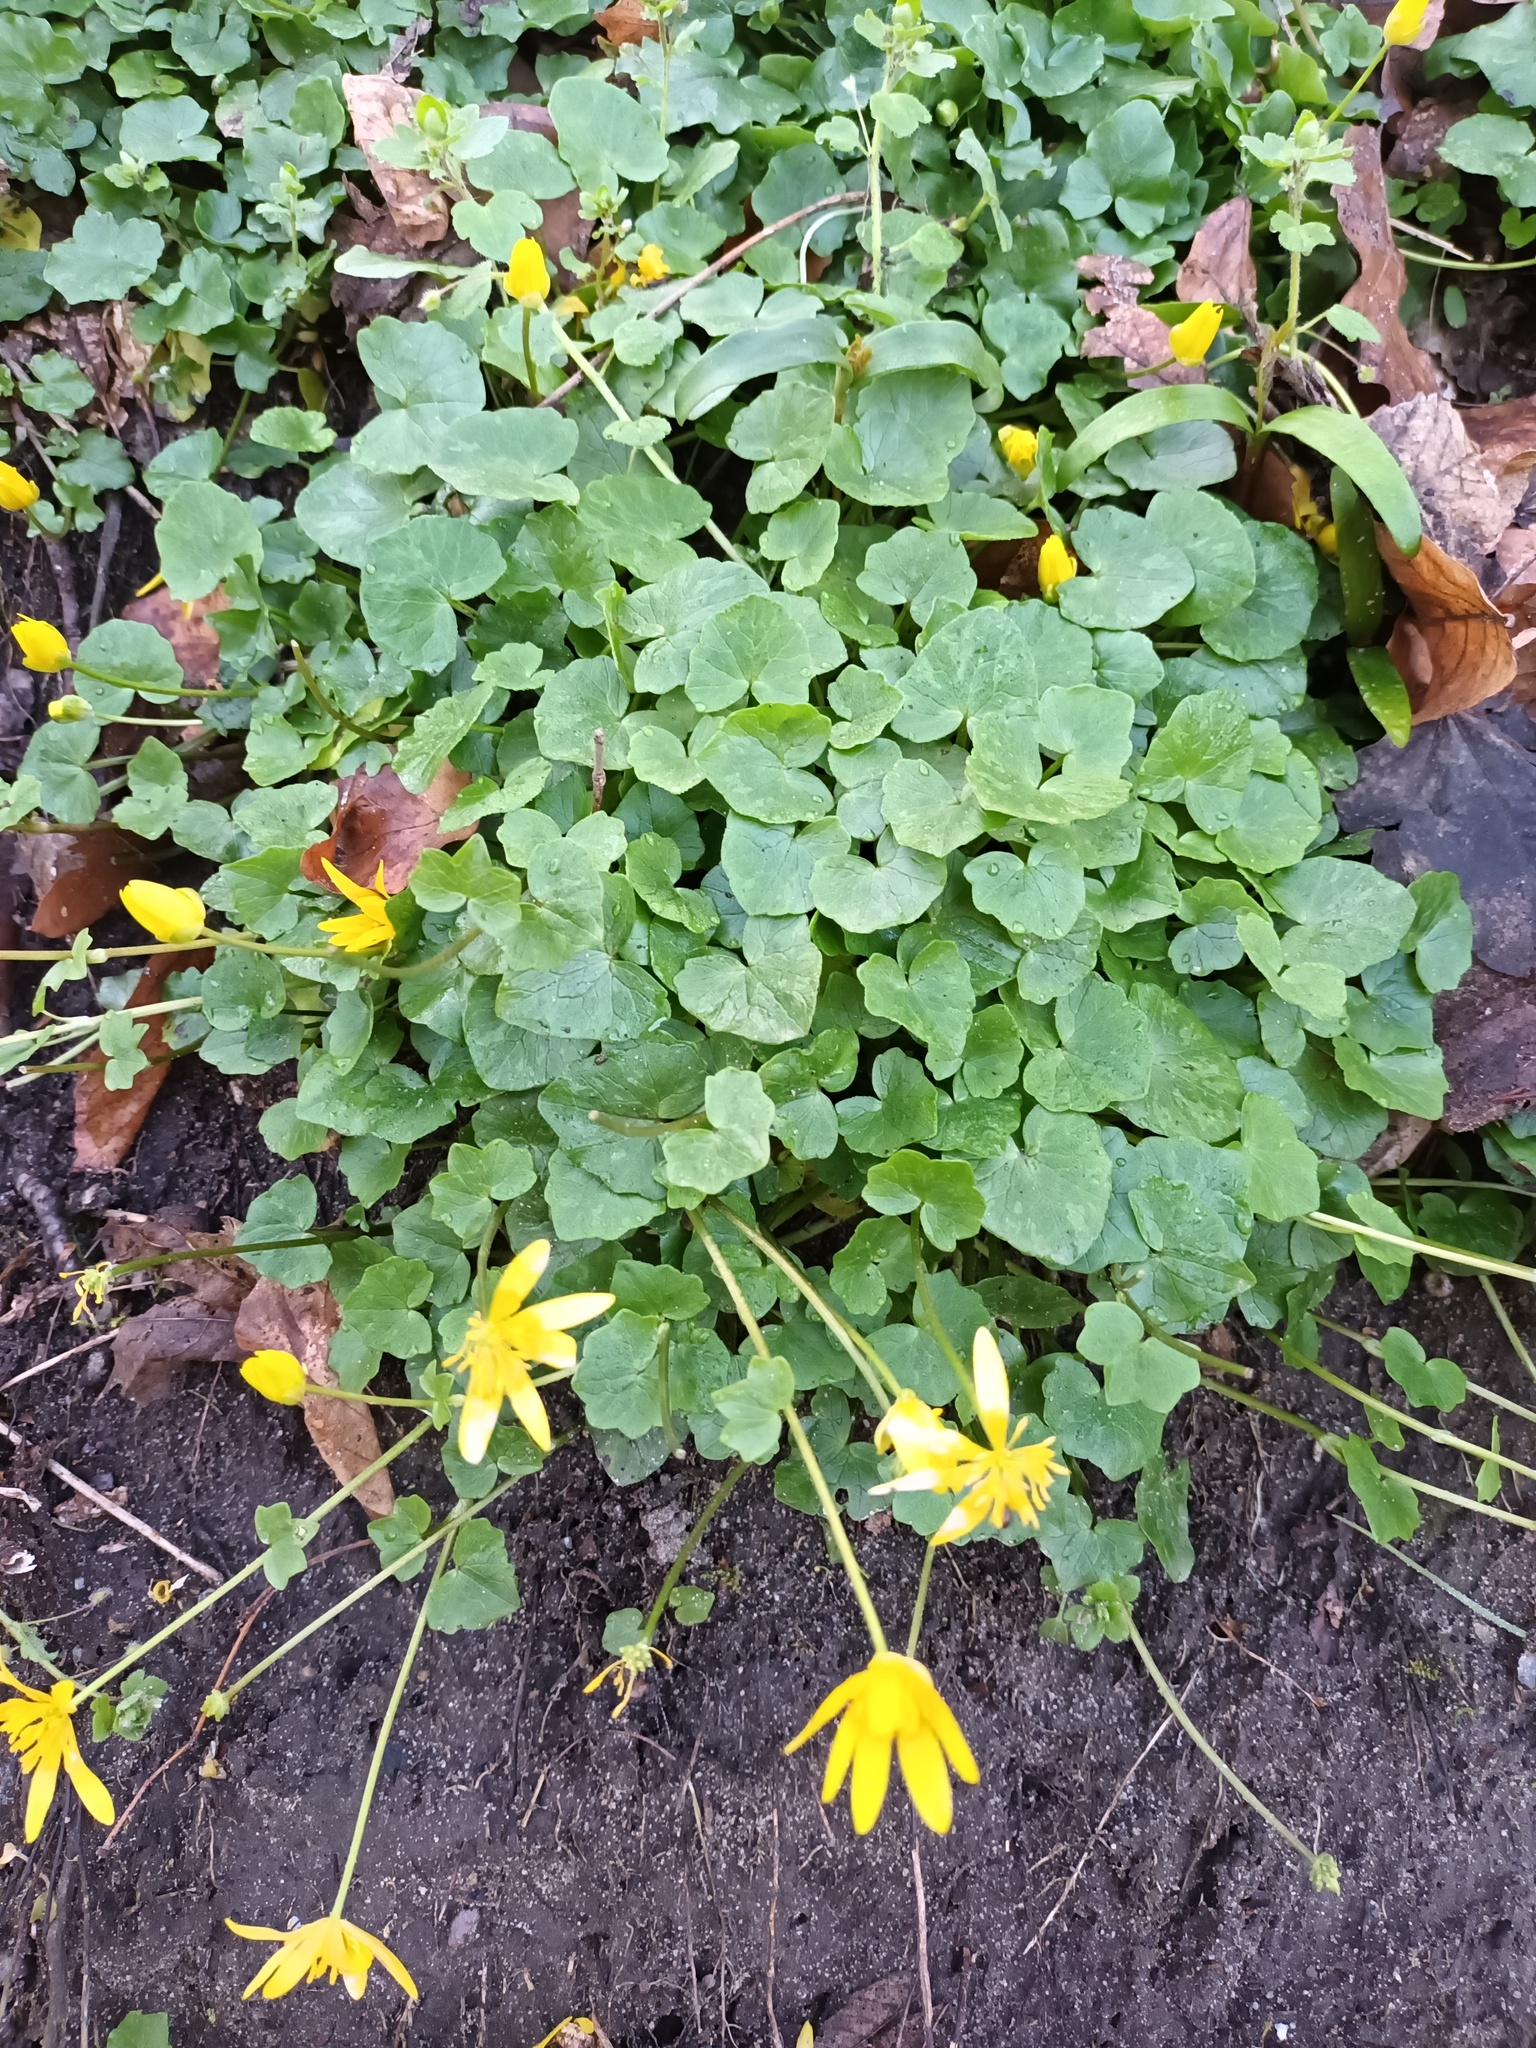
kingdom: Plantae
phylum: Tracheophyta
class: Magnoliopsida
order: Ranunculales
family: Ranunculaceae
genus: Ficaria
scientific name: Ficaria verna
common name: Lesser celandine
